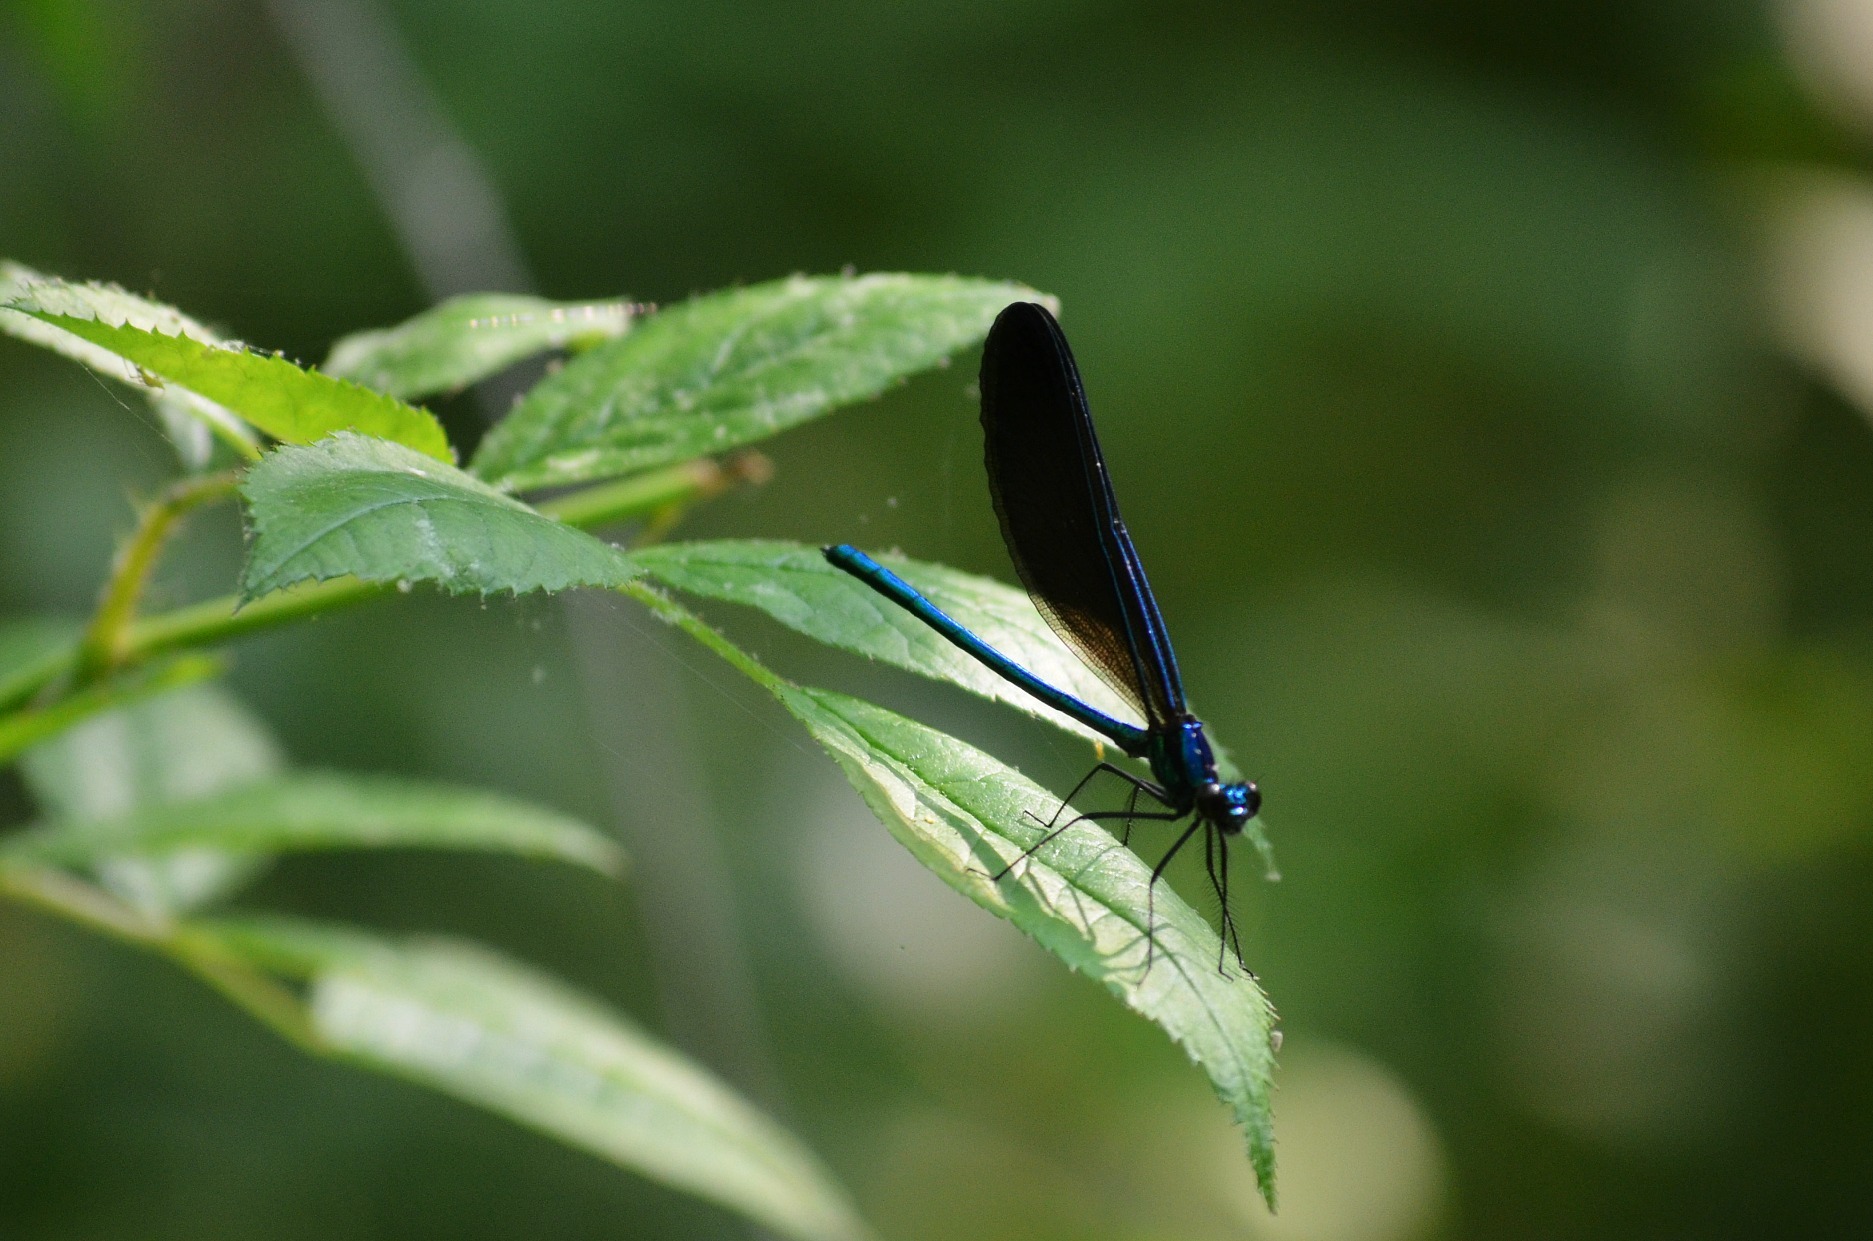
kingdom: Animalia
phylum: Arthropoda
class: Insecta
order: Odonata
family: Calopterygidae
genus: Calopteryx
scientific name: Calopteryx maculata
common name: Ebony jewelwing
